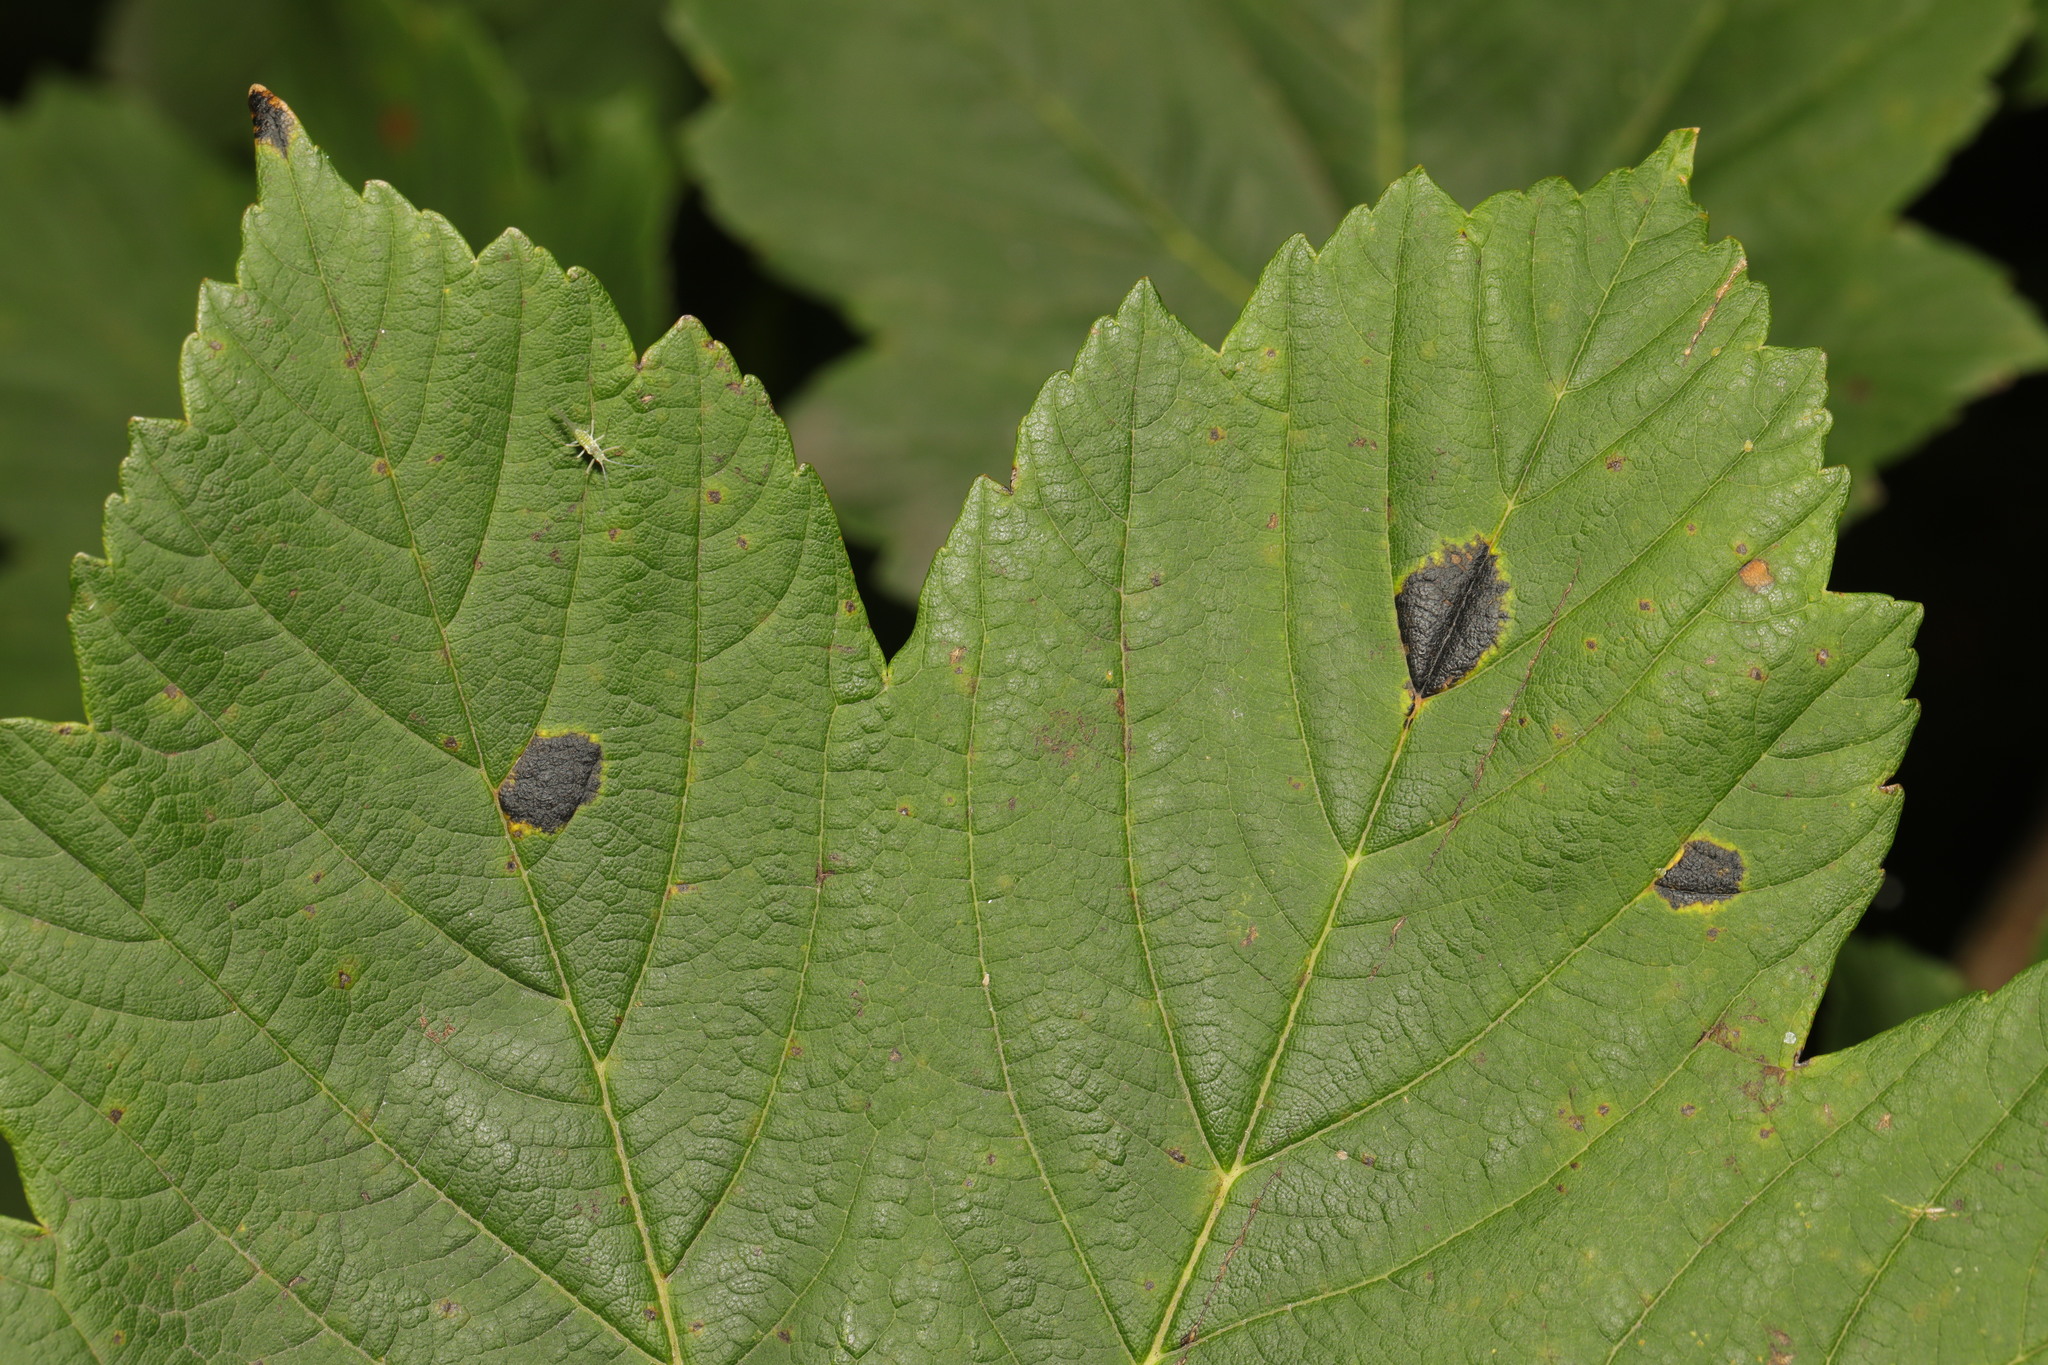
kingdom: Fungi
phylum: Ascomycota
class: Leotiomycetes
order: Rhytismatales
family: Rhytismataceae
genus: Rhytisma
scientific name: Rhytisma acerinum
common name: European tar spot
